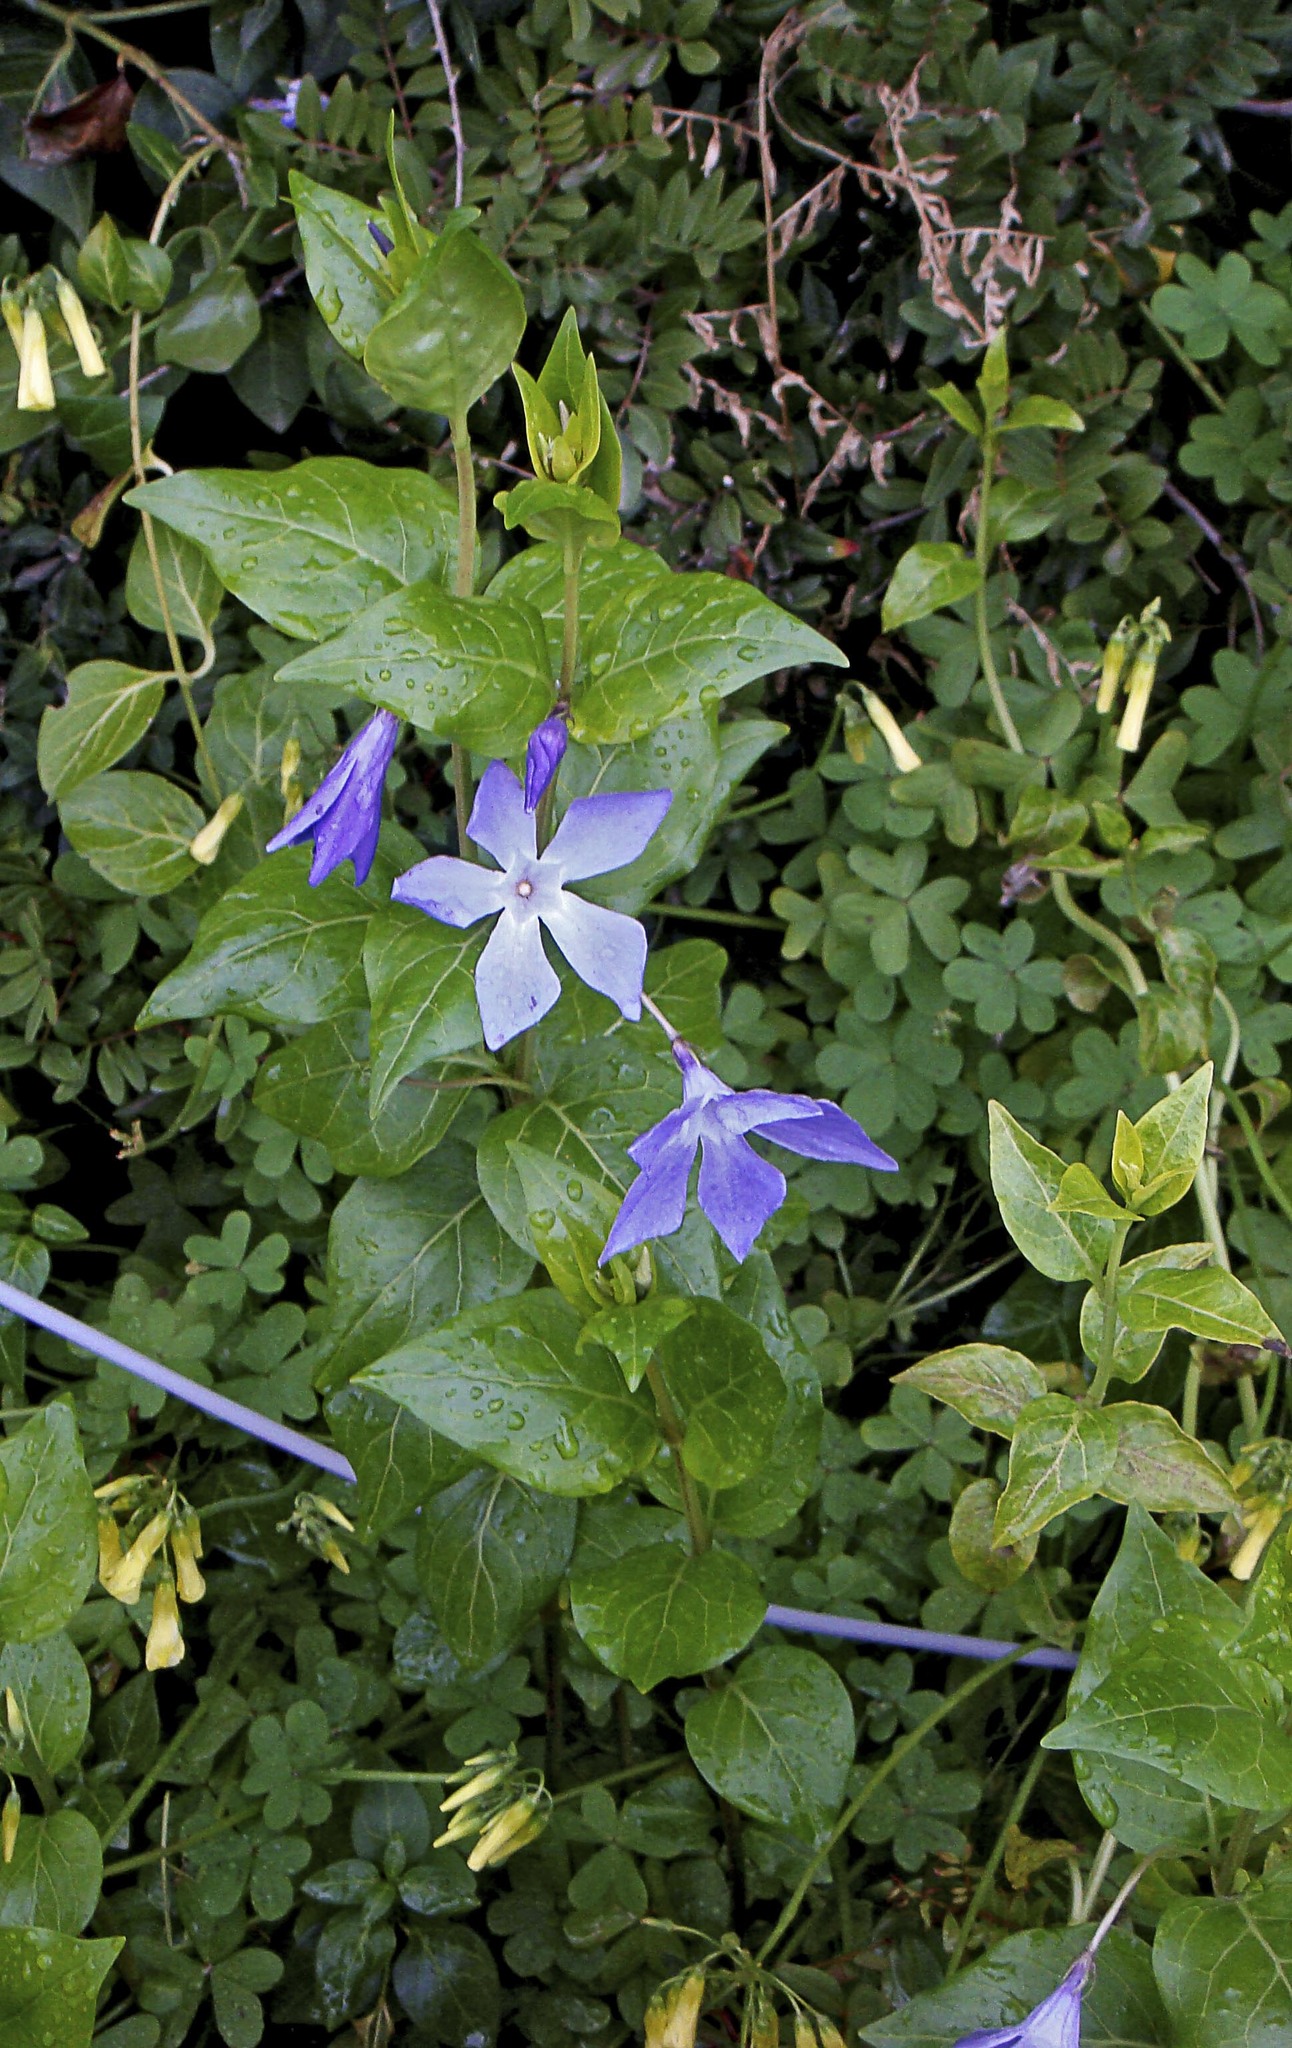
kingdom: Plantae
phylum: Tracheophyta
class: Magnoliopsida
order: Gentianales
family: Apocynaceae
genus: Vinca
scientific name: Vinca difformis
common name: Intermediate periwinkle
